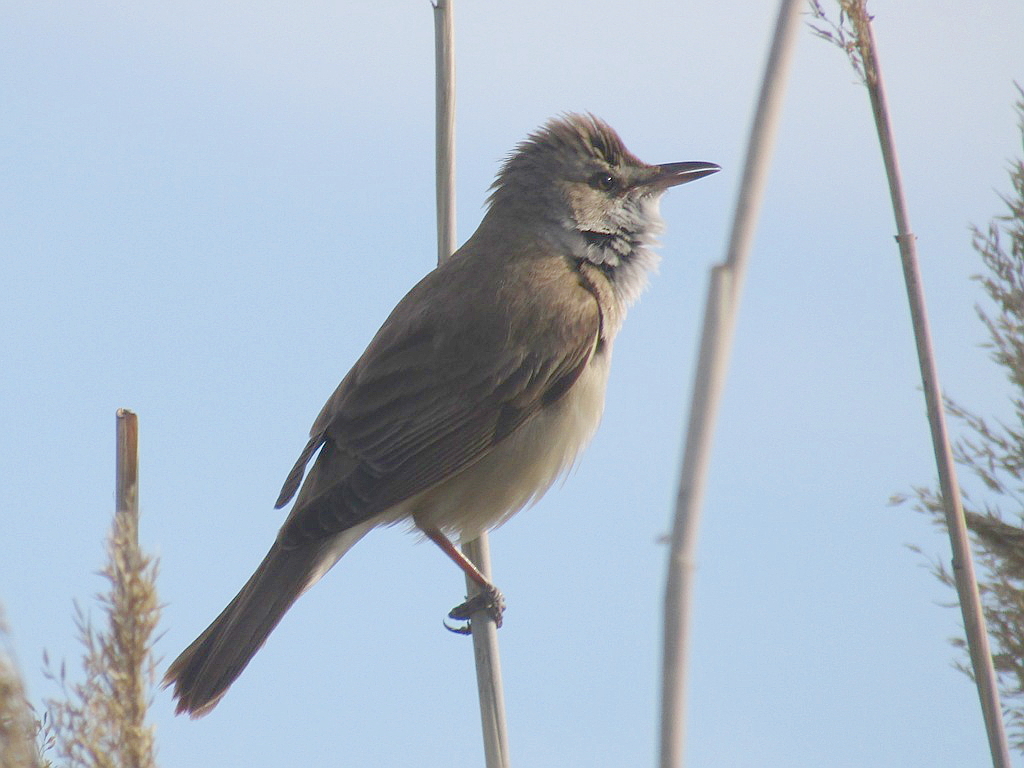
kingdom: Animalia
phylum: Chordata
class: Aves
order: Passeriformes
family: Acrocephalidae
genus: Acrocephalus
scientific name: Acrocephalus arundinaceus
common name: Great reed warbler
